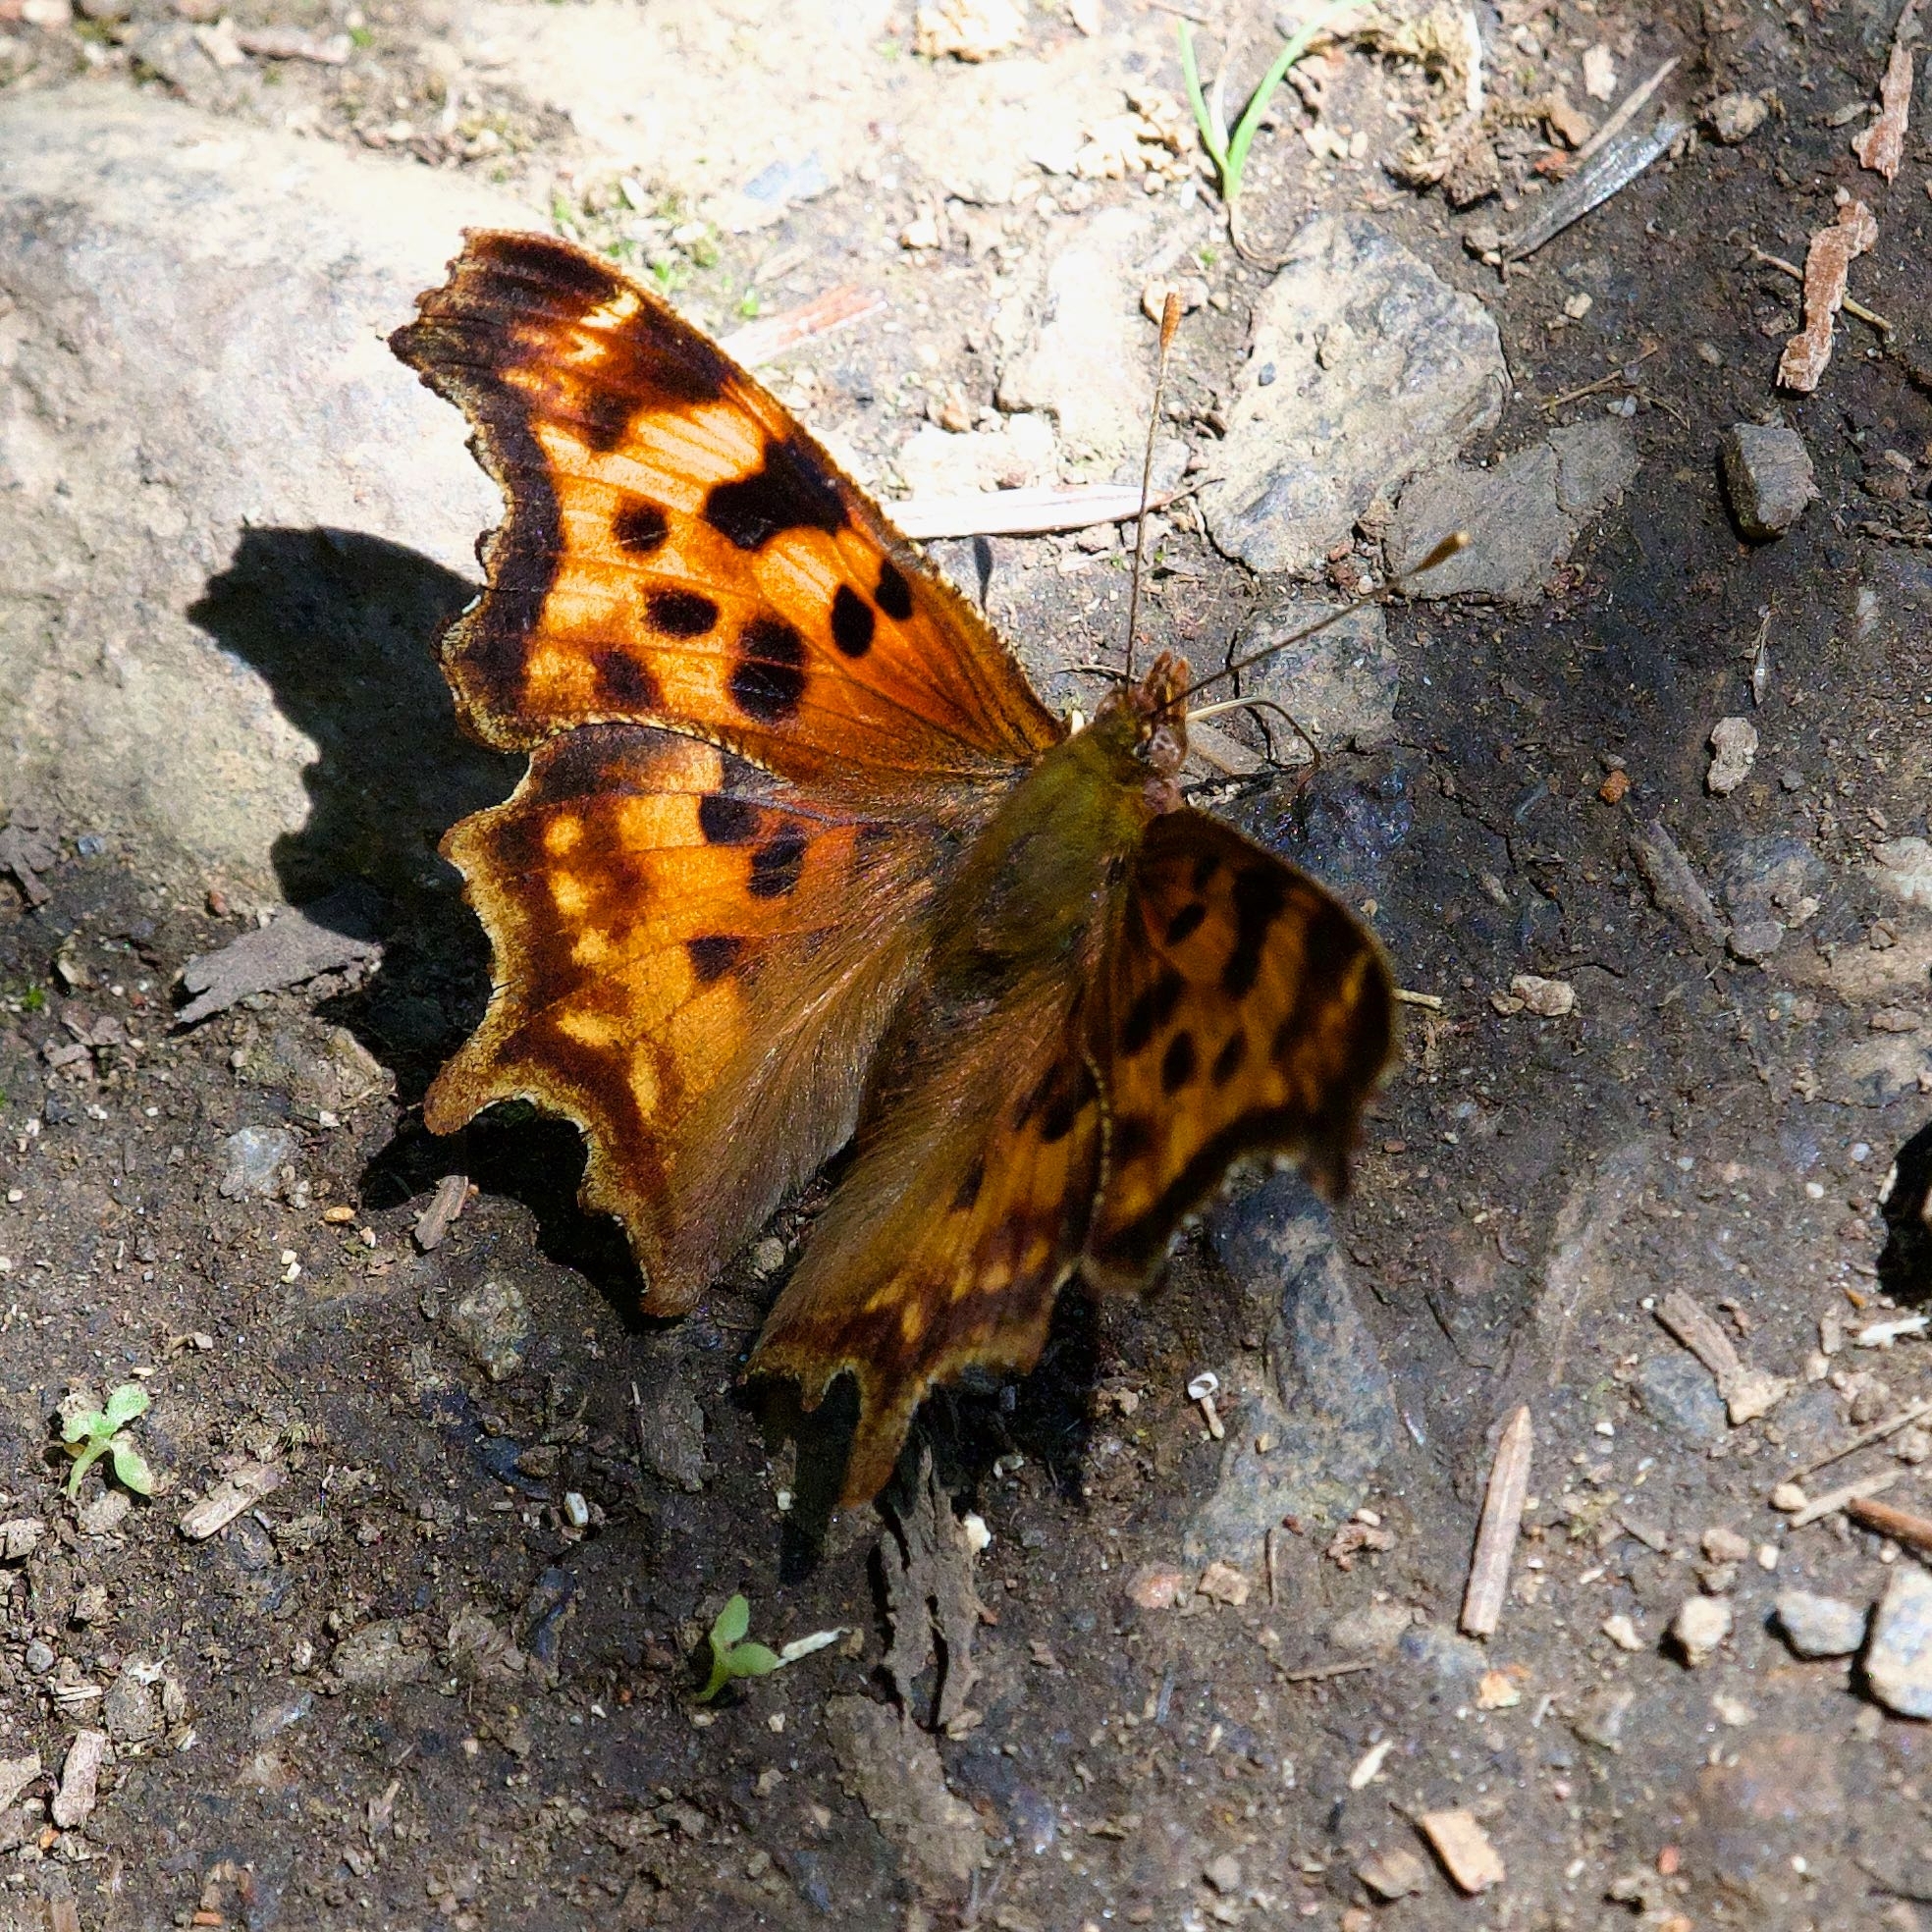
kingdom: Animalia
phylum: Arthropoda
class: Insecta
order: Lepidoptera
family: Nymphalidae
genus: Polygonia
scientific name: Polygonia satyrus
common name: Satyr angle wing
